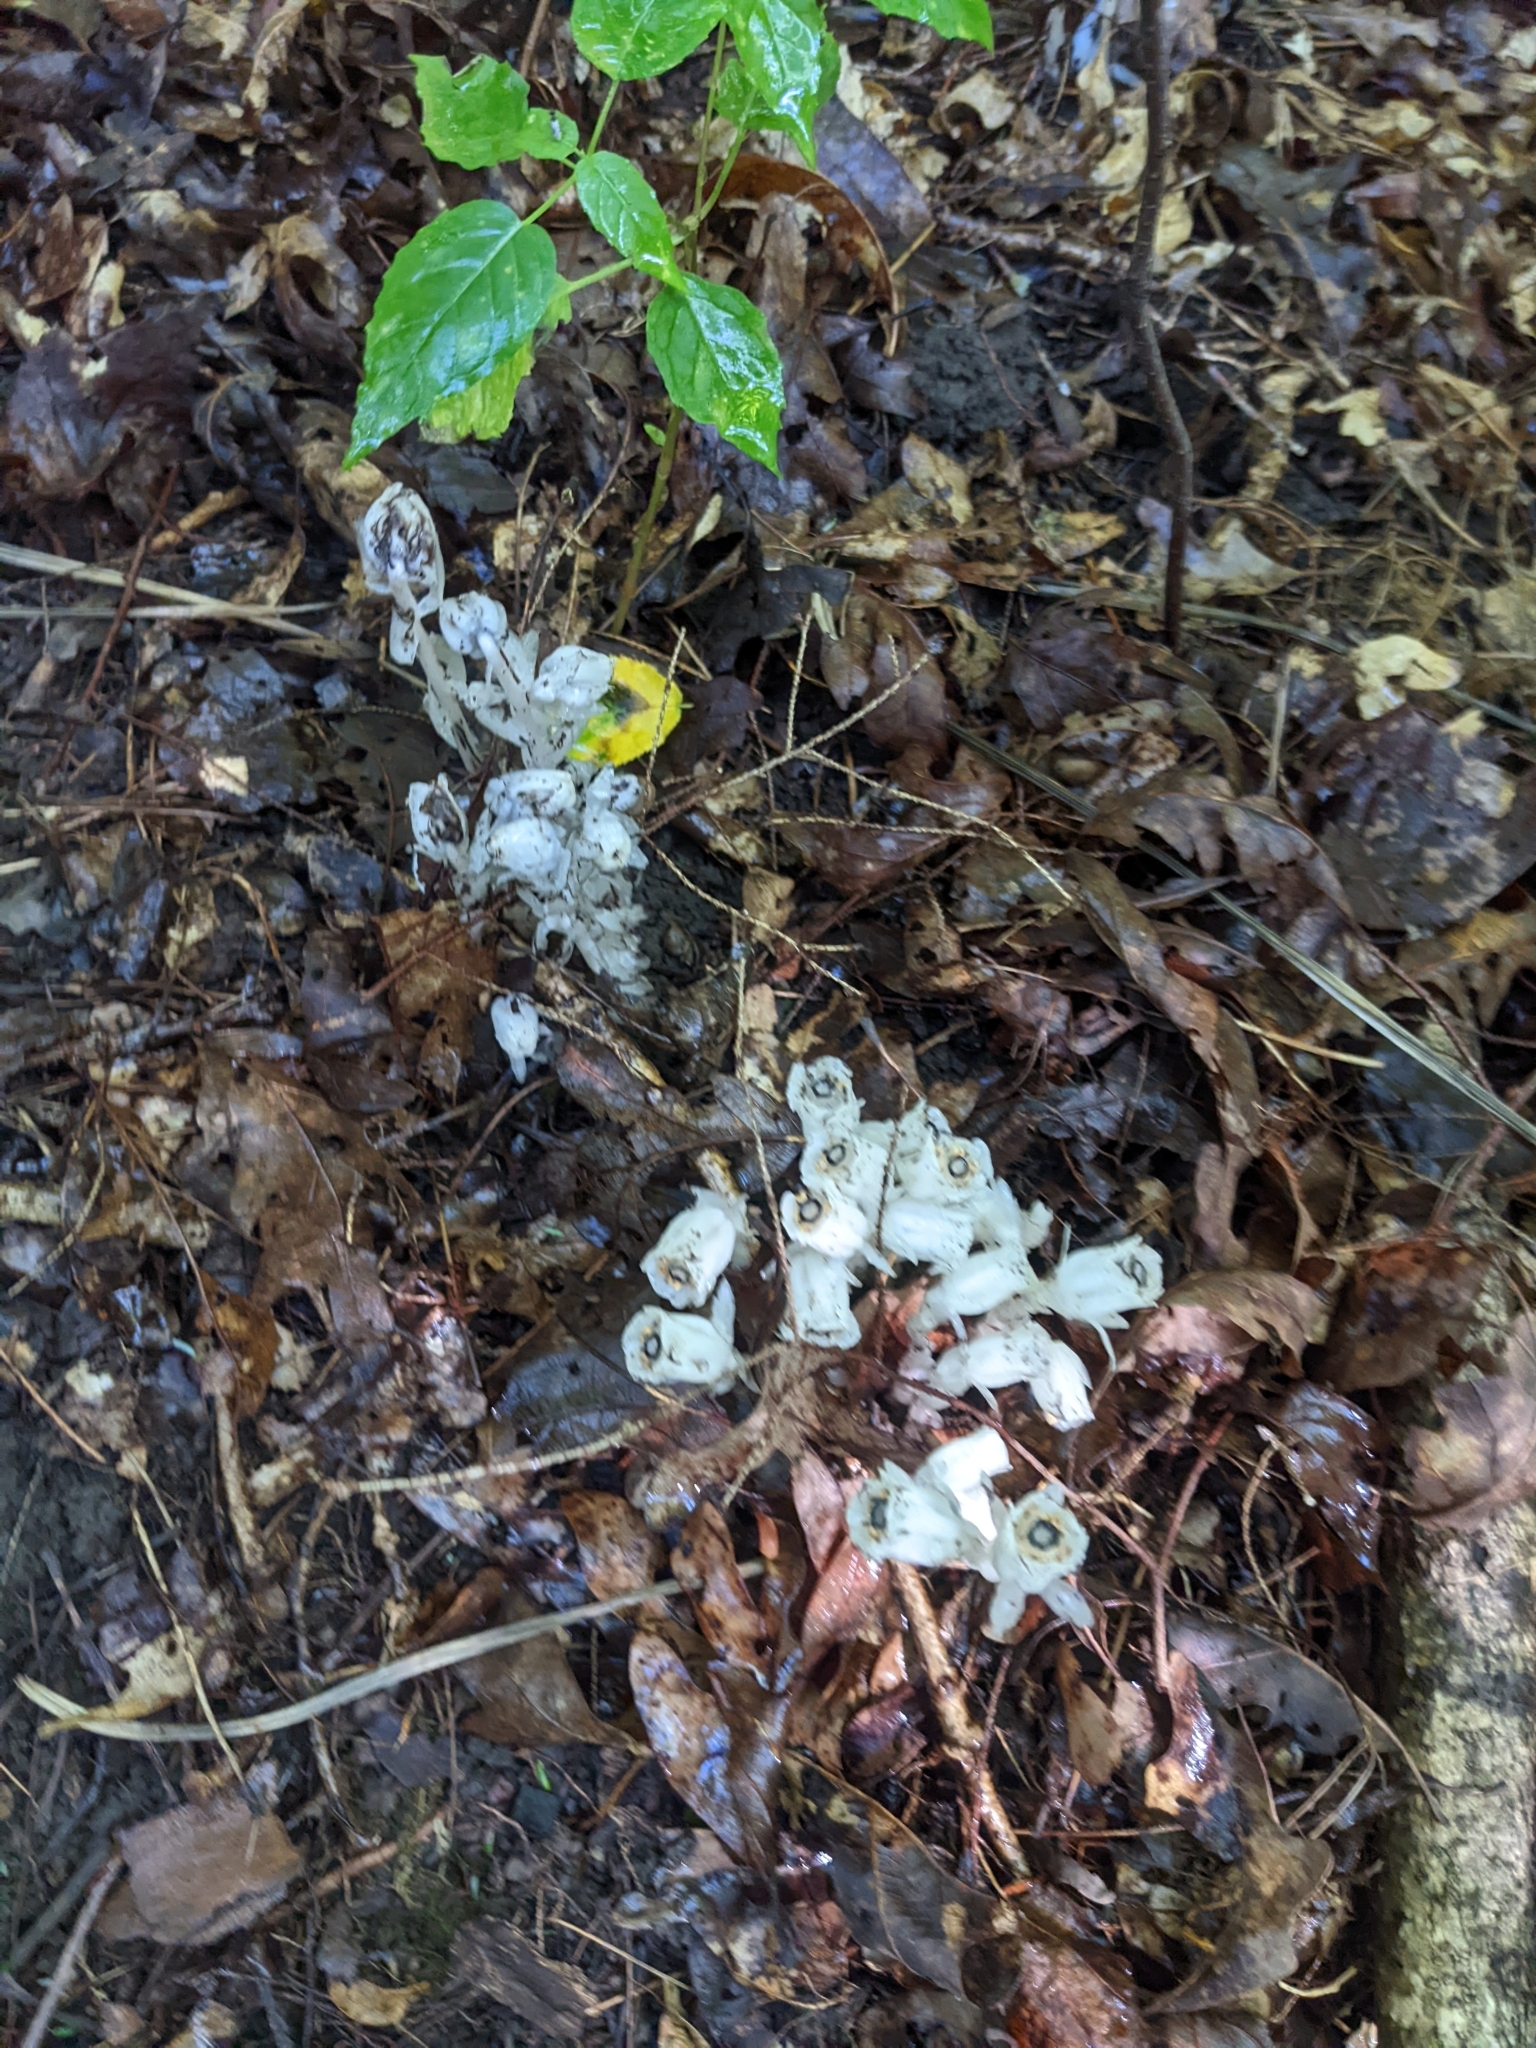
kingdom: Plantae
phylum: Tracheophyta
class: Magnoliopsida
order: Ericales
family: Ericaceae
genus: Monotropa
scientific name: Monotropa uniflora
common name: Convulsion root
